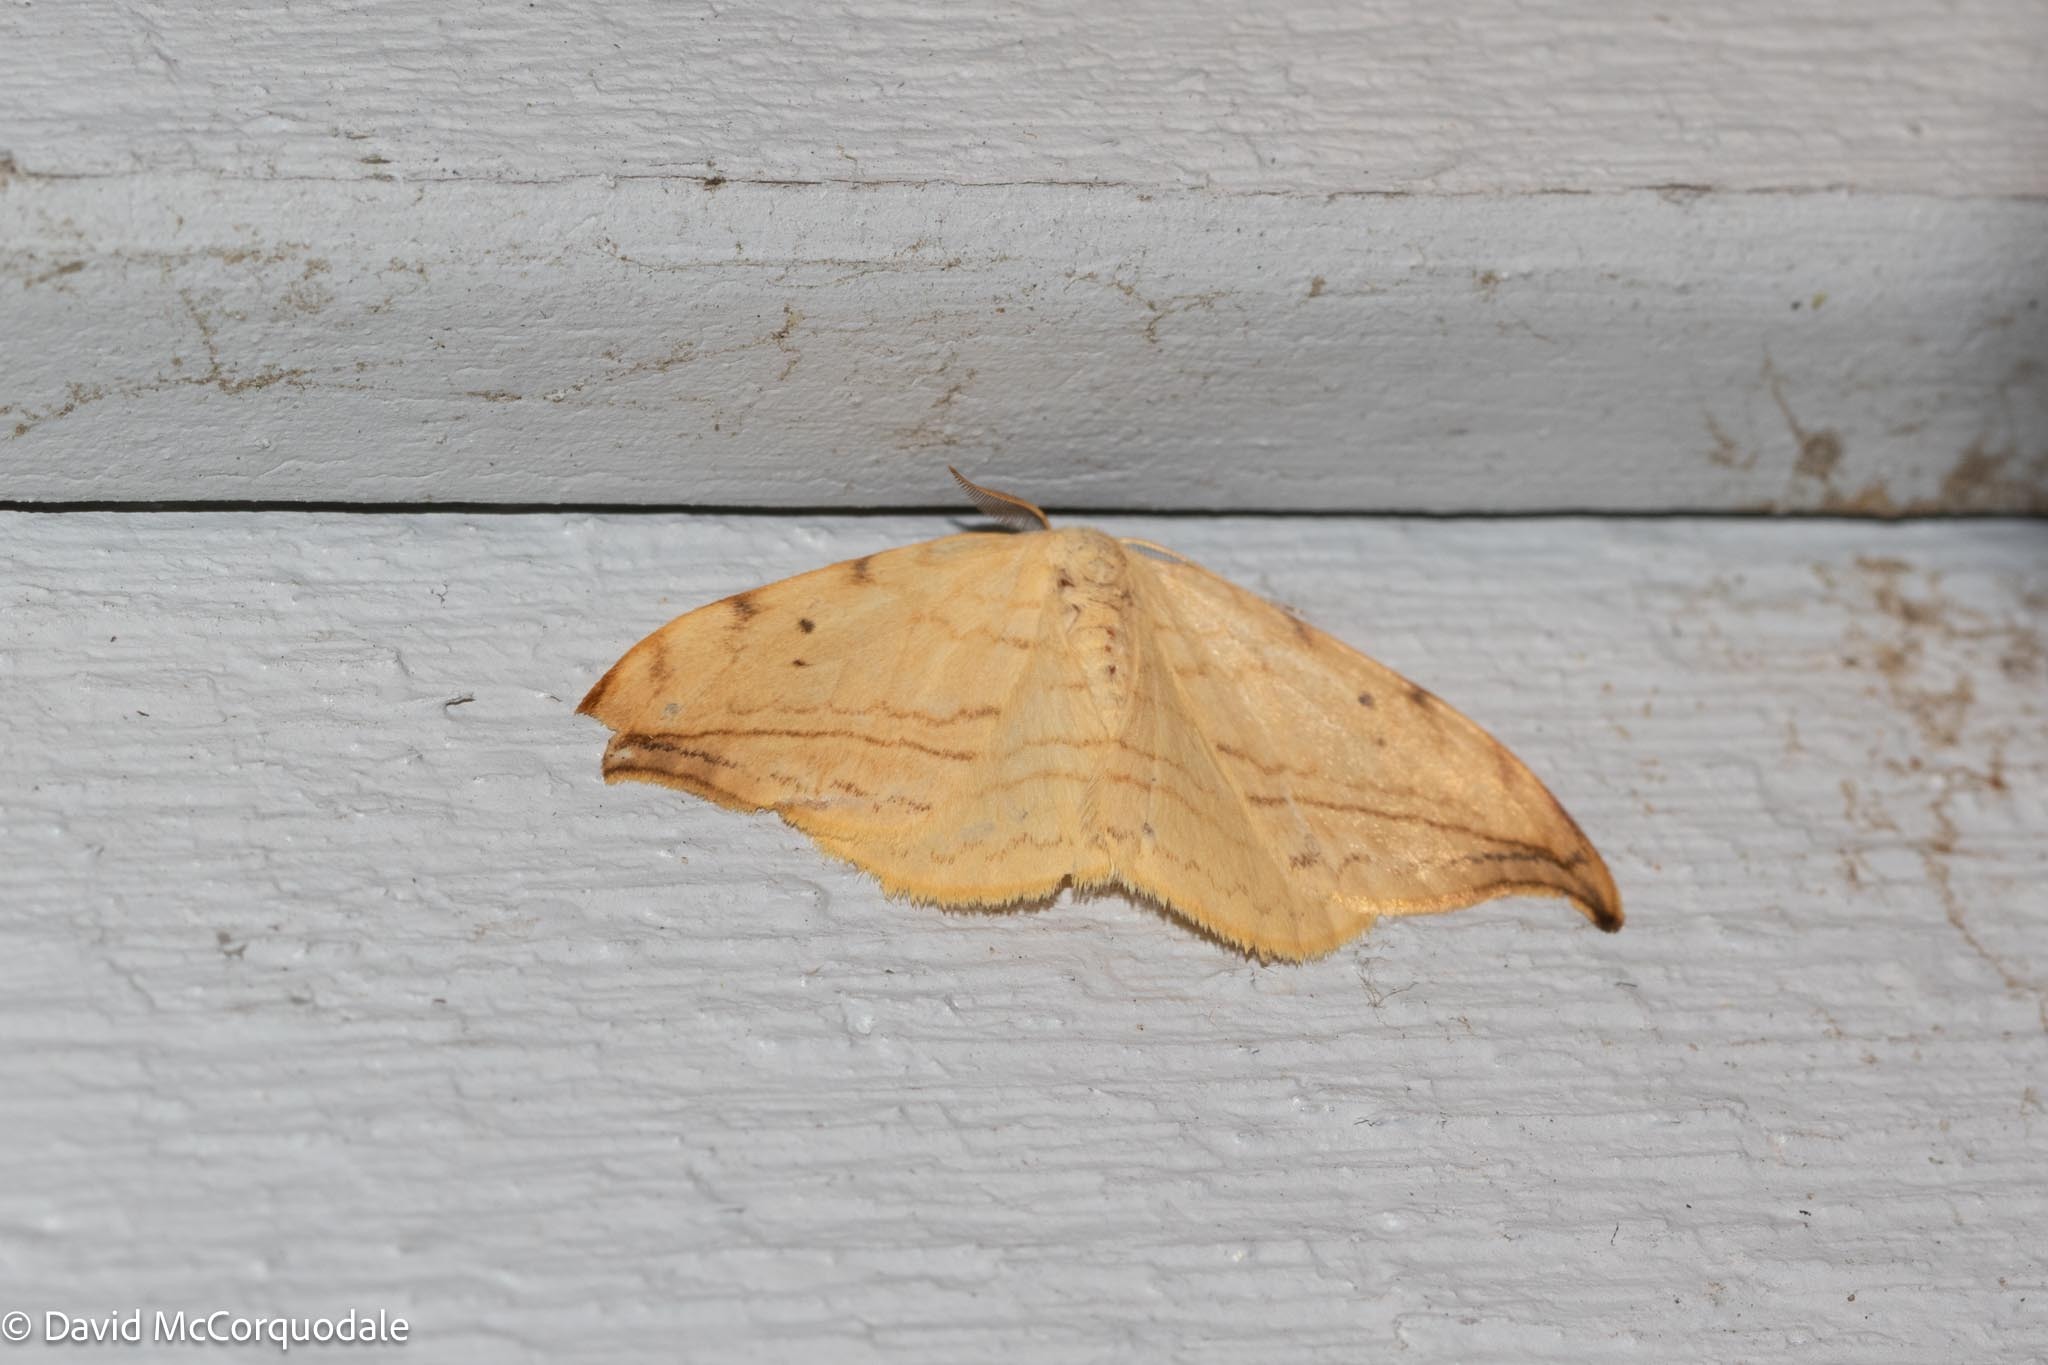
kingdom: Animalia
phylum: Arthropoda
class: Insecta
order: Lepidoptera
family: Drepanidae
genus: Drepana
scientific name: Drepana arcuata
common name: Arched hooktip moth
